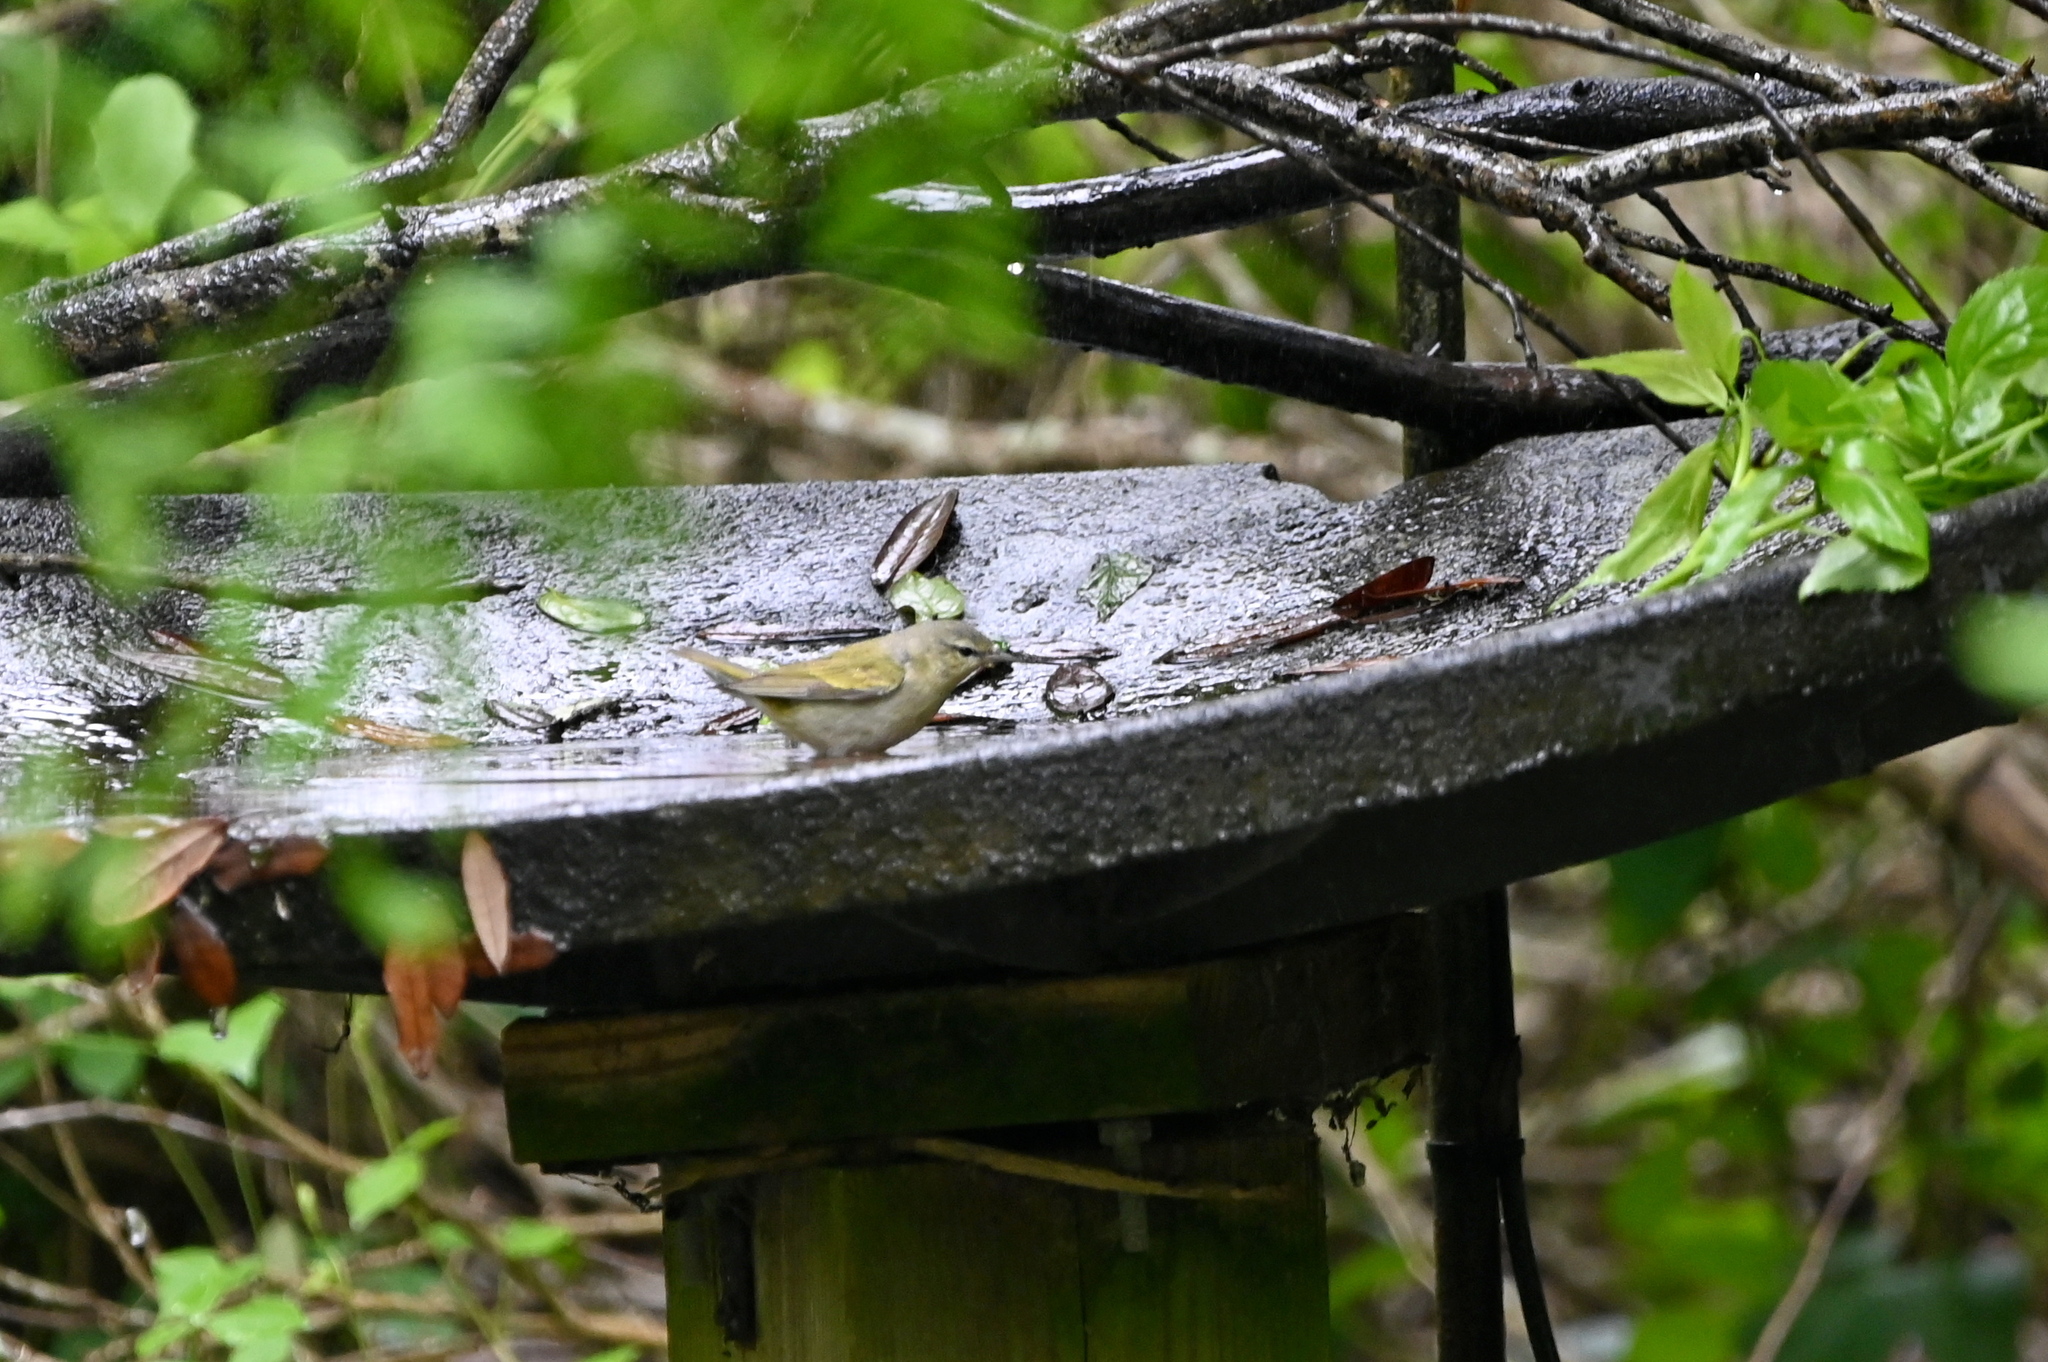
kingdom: Animalia
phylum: Chordata
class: Aves
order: Passeriformes
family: Parulidae
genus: Leiothlypis
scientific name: Leiothlypis peregrina
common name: Tennessee warbler
